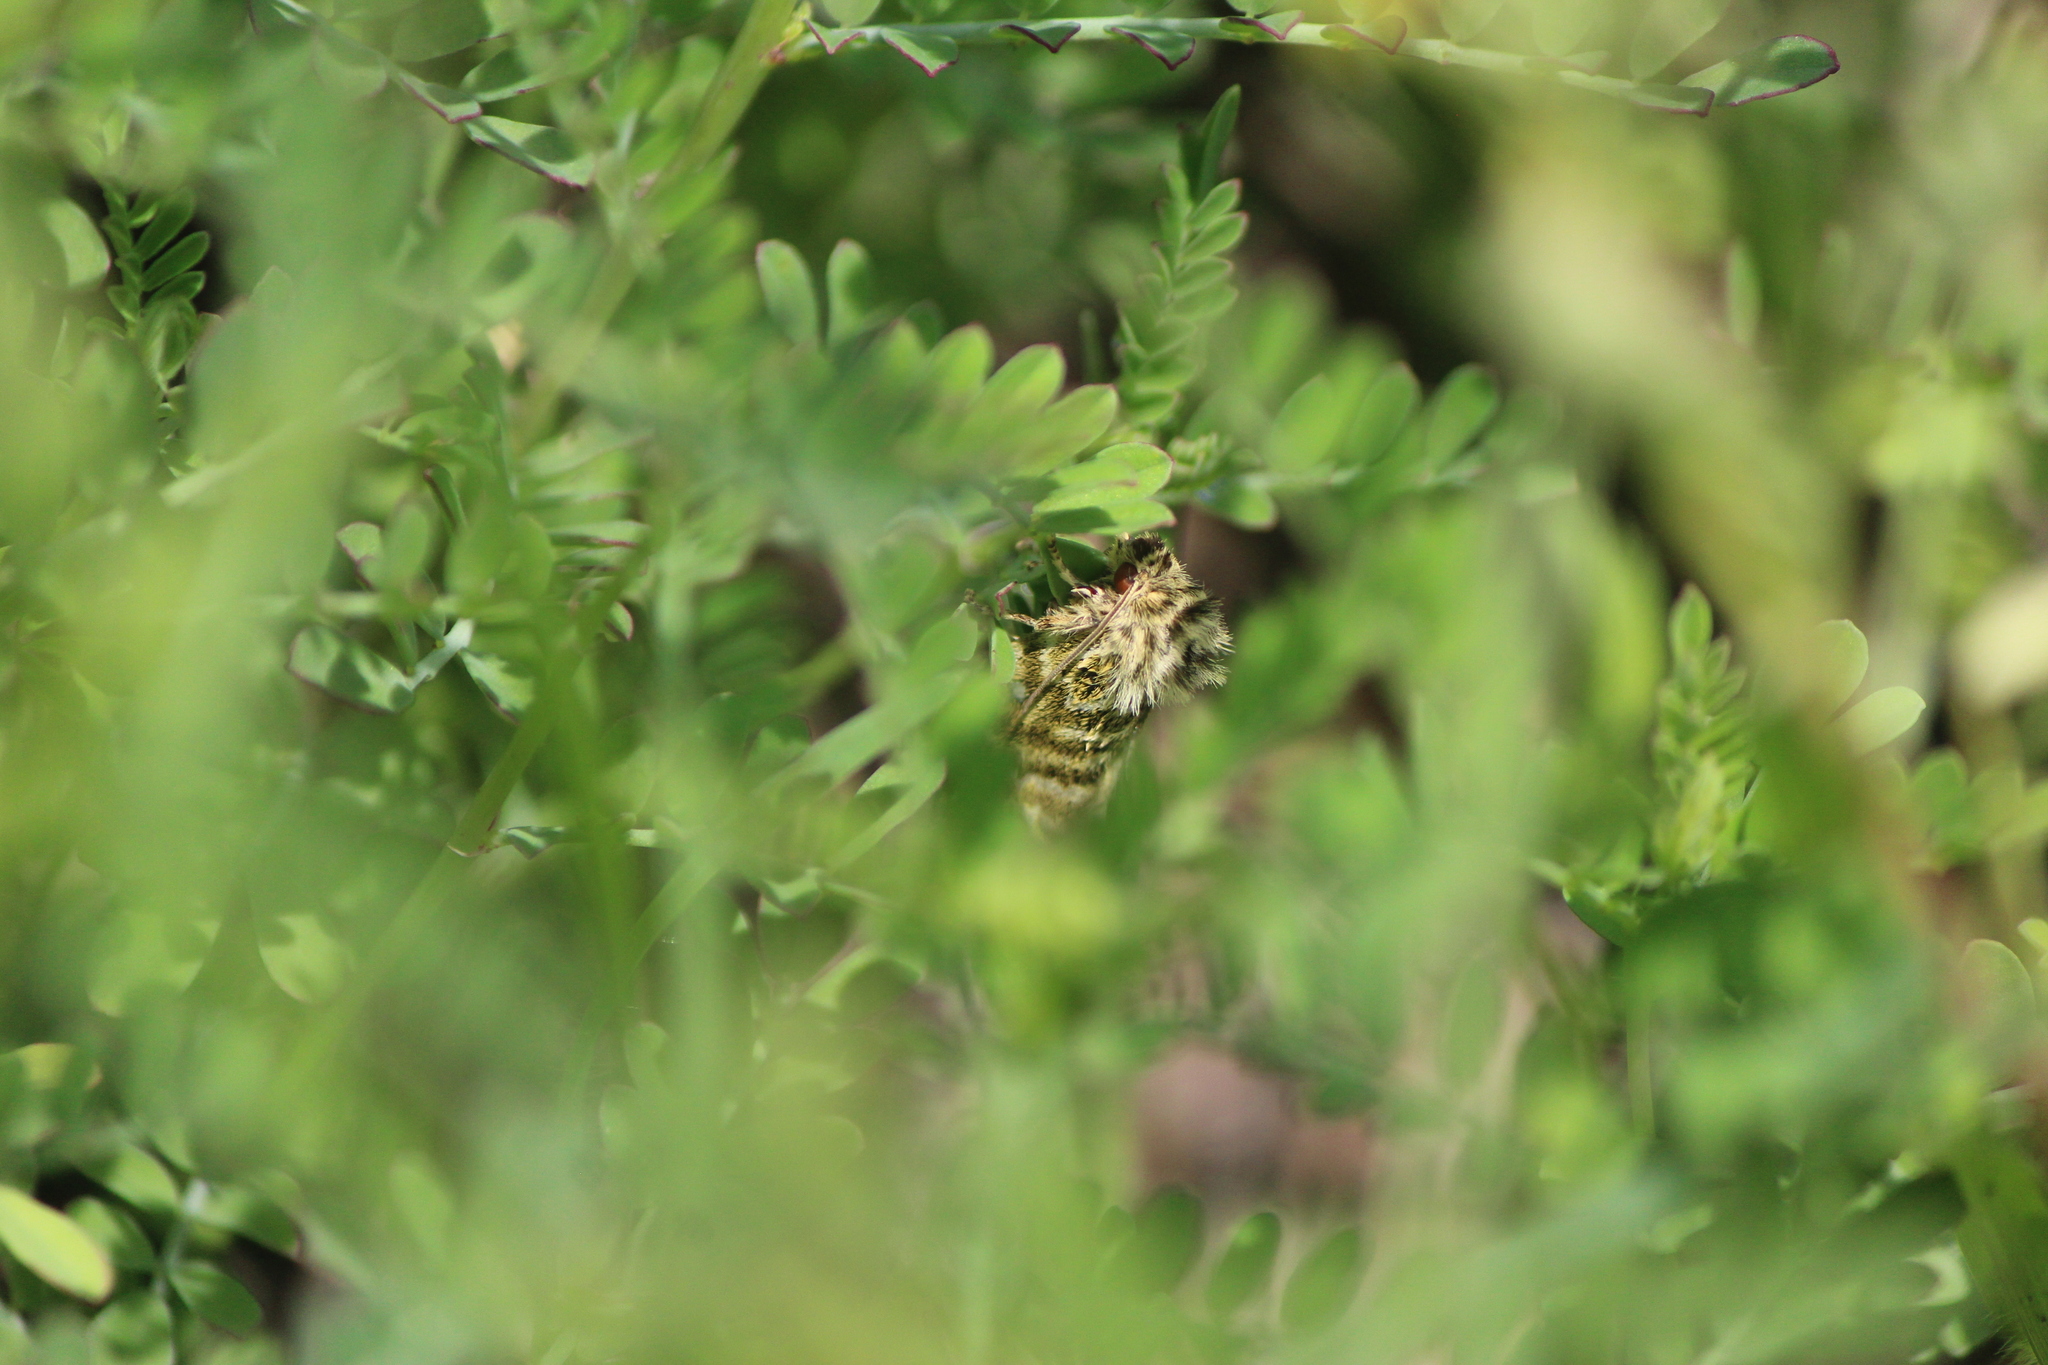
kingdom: Animalia
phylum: Arthropoda
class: Insecta
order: Lepidoptera
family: Noctuidae
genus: Plagiomimicus
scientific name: Plagiomimicus pyralina
